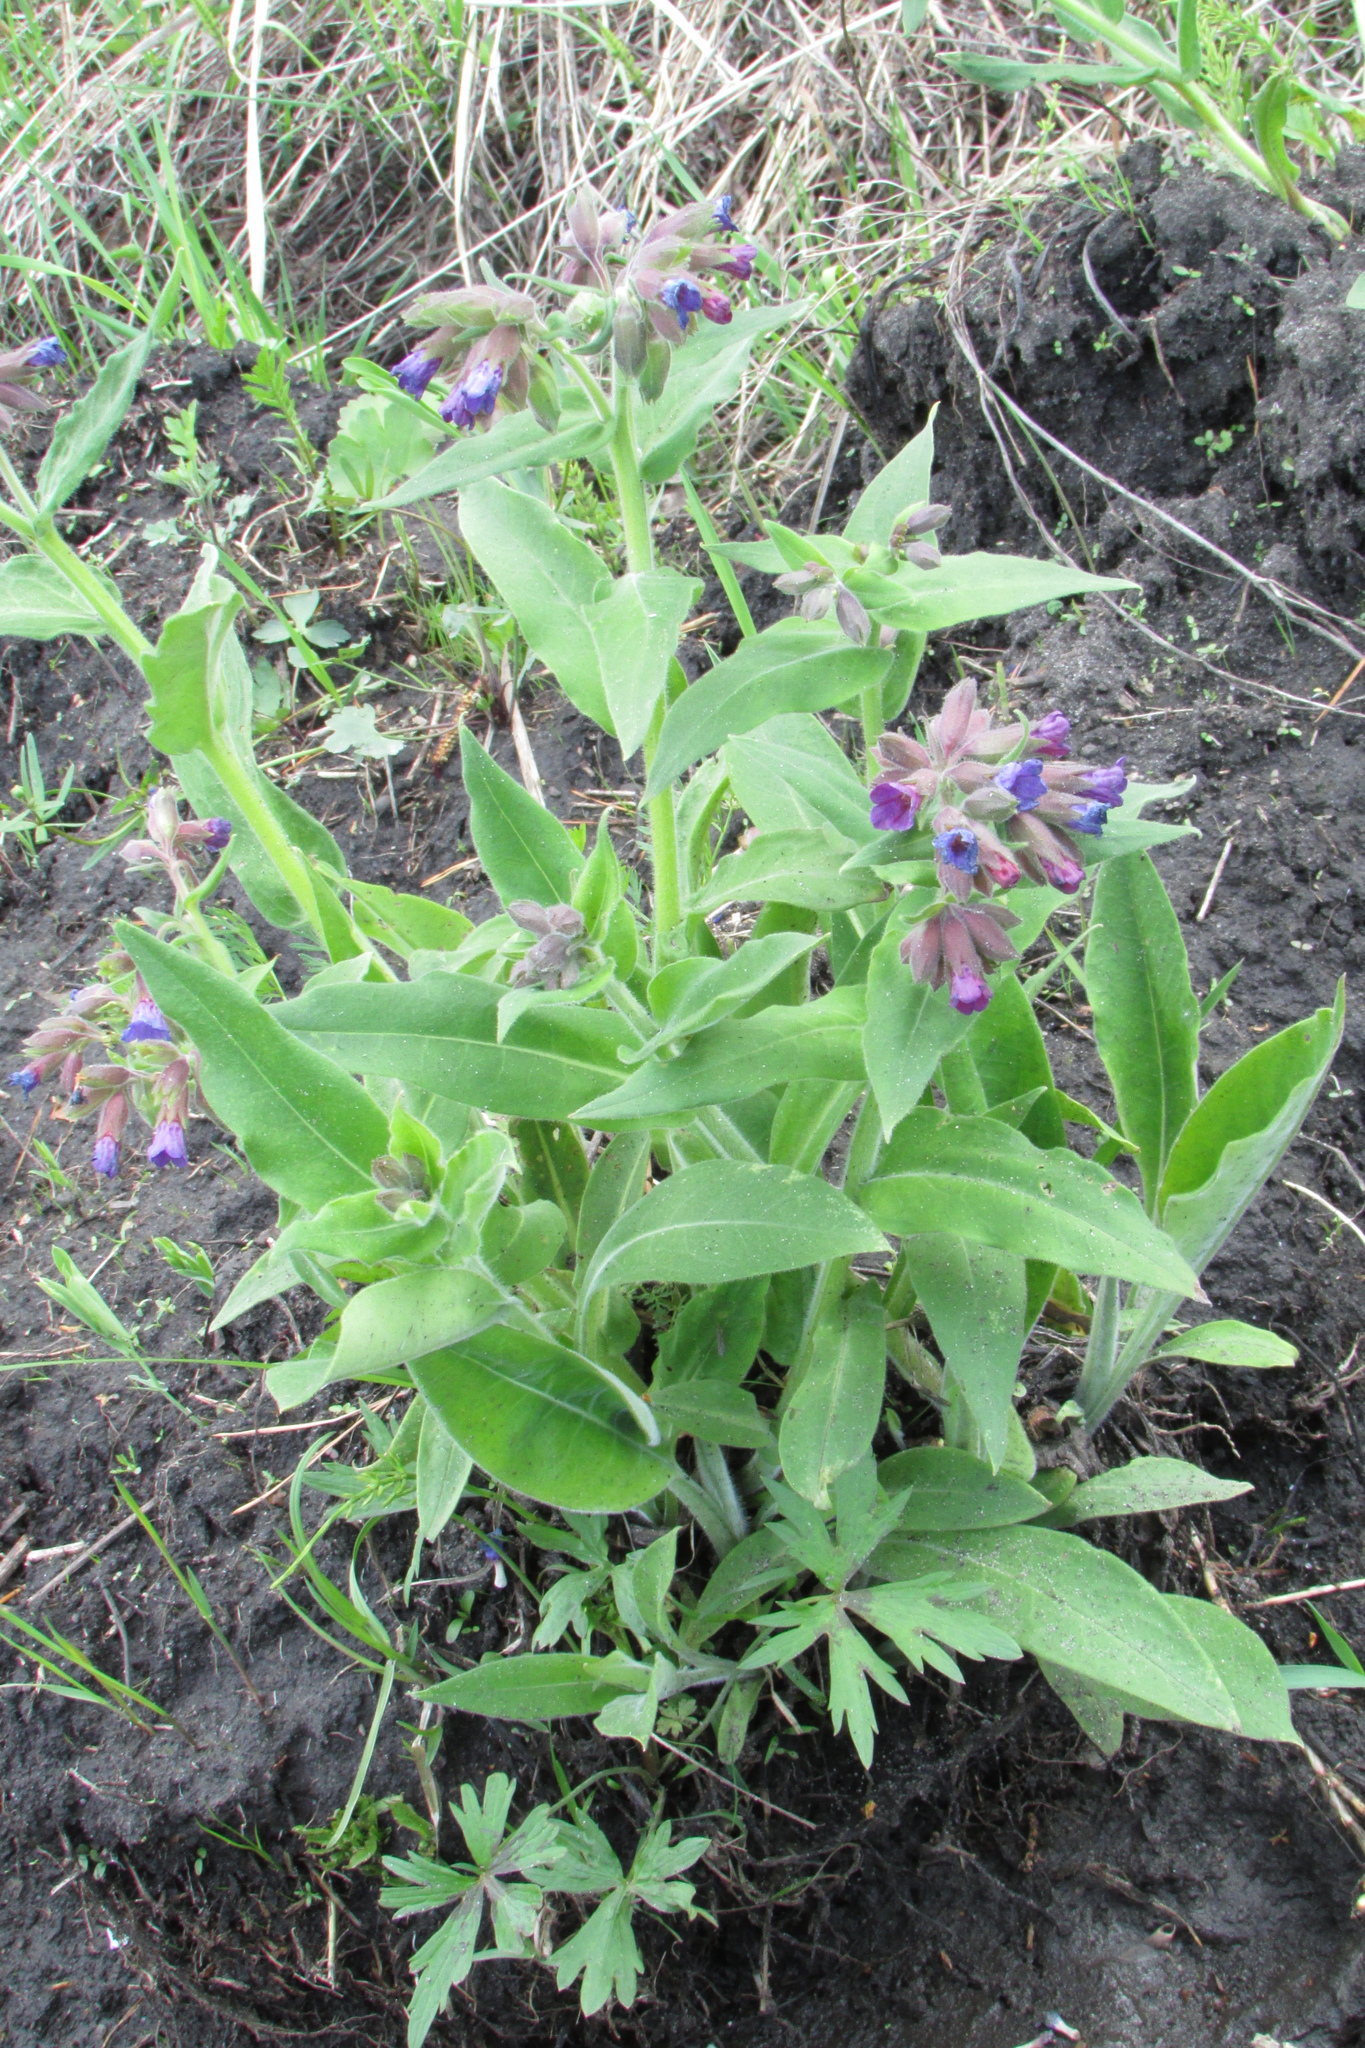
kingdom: Plantae
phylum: Tracheophyta
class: Magnoliopsida
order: Boraginales
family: Boraginaceae
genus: Pulmonaria
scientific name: Pulmonaria mollis
